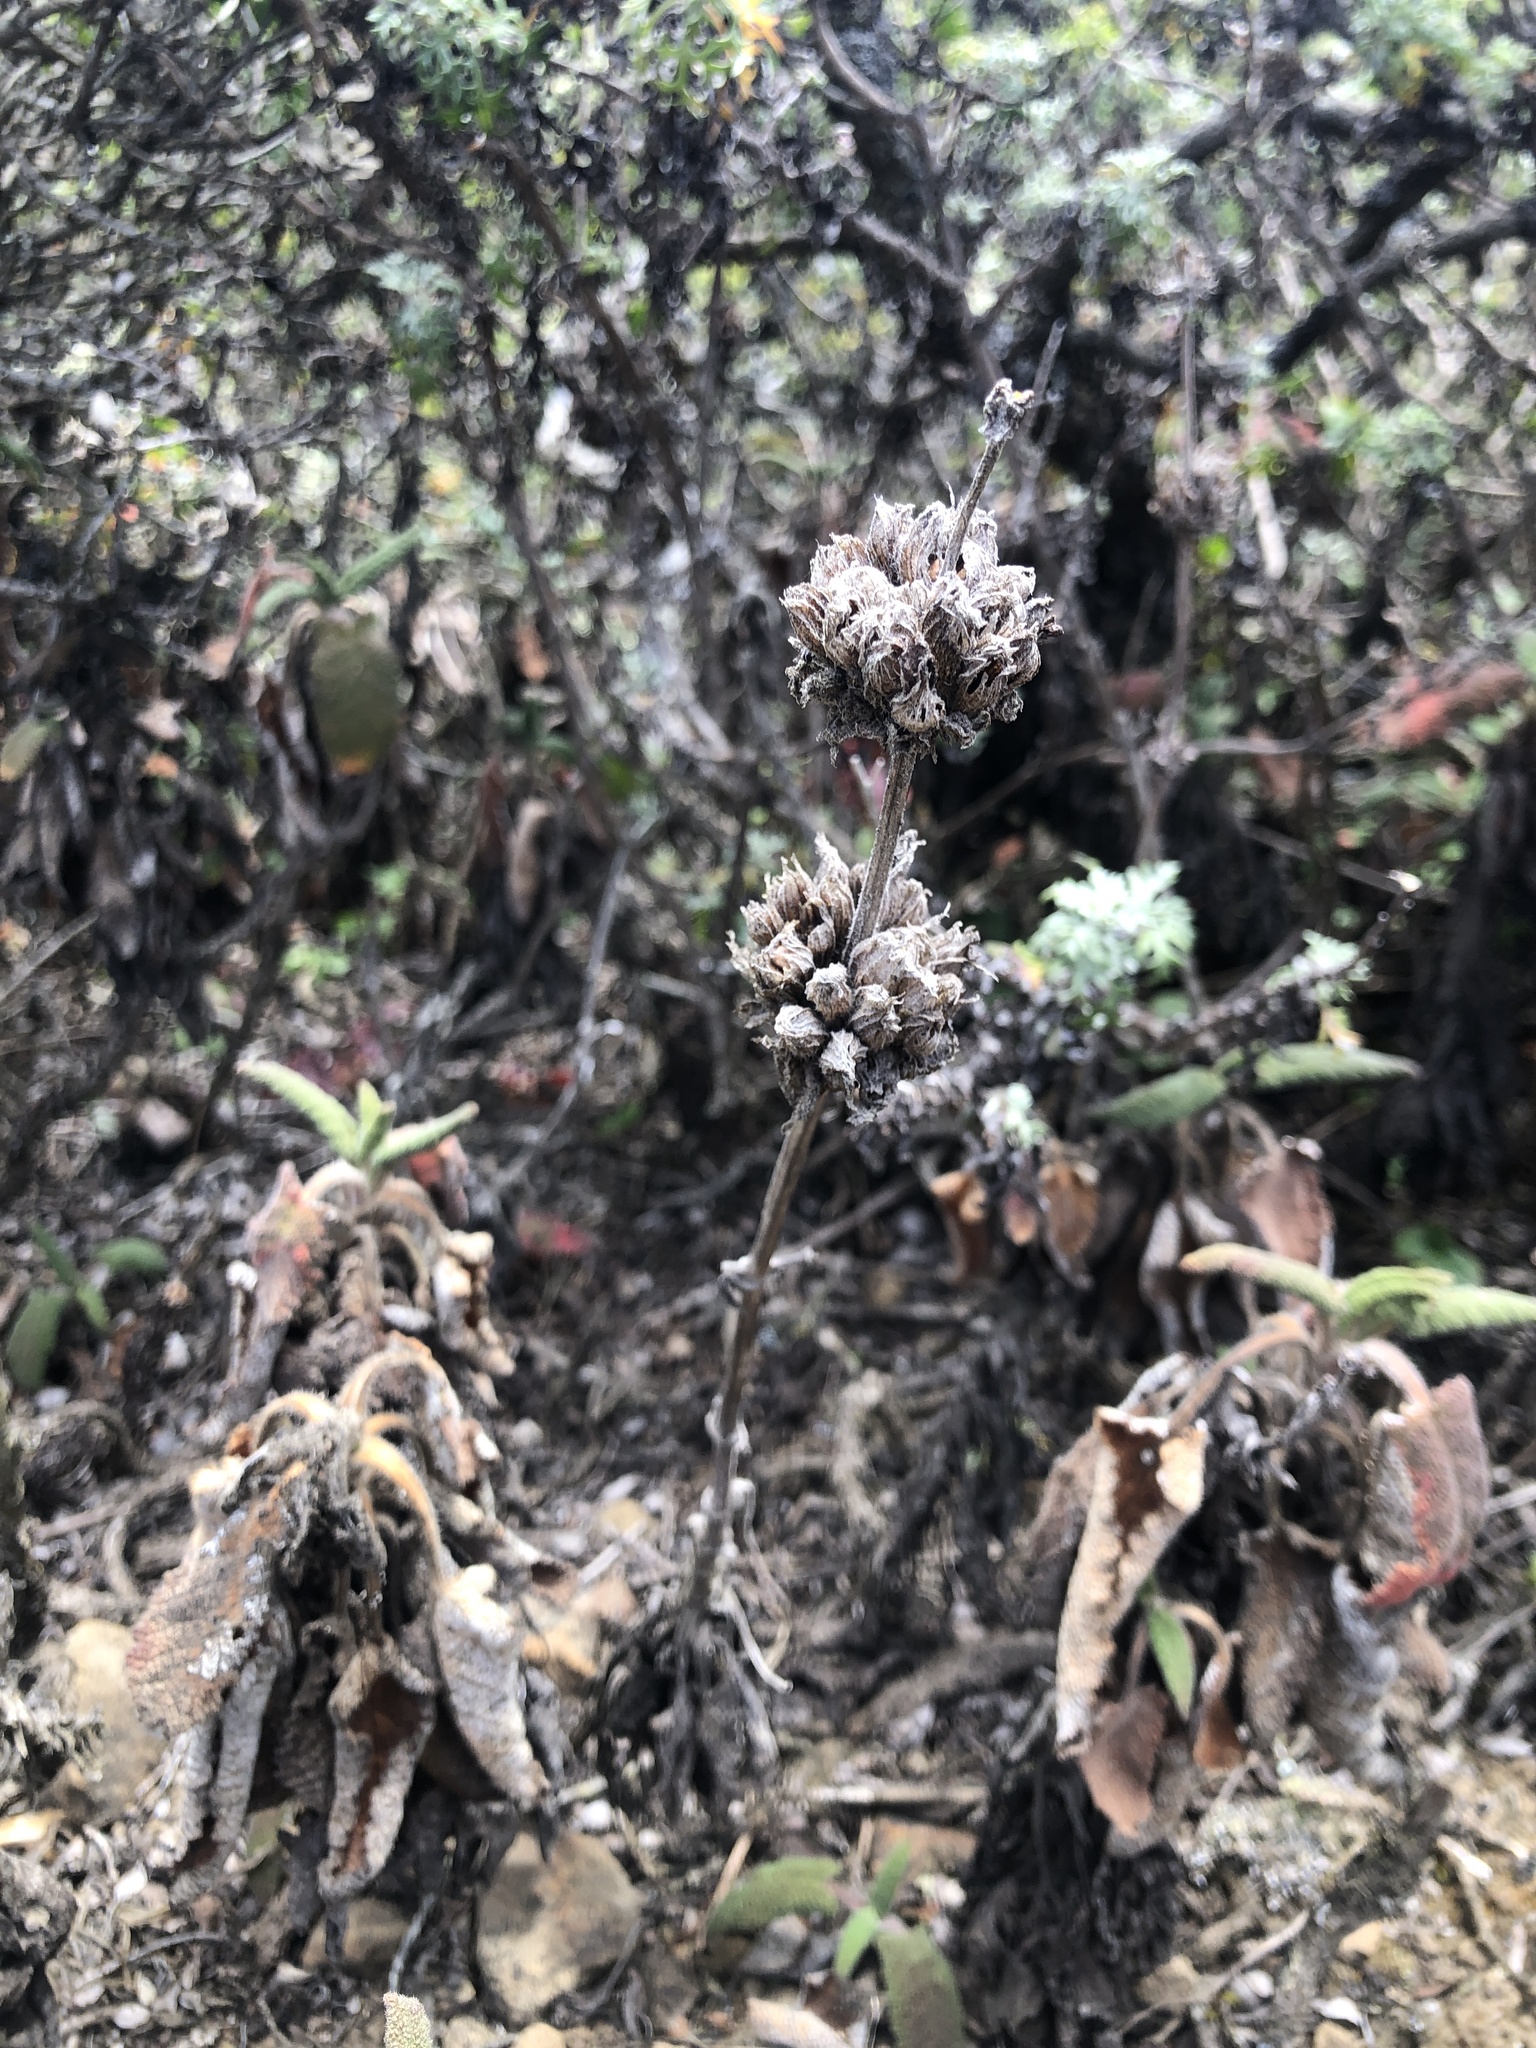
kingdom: Plantae
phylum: Tracheophyta
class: Magnoliopsida
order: Lamiales
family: Lamiaceae
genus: Salvia
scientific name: Salvia spathacea
